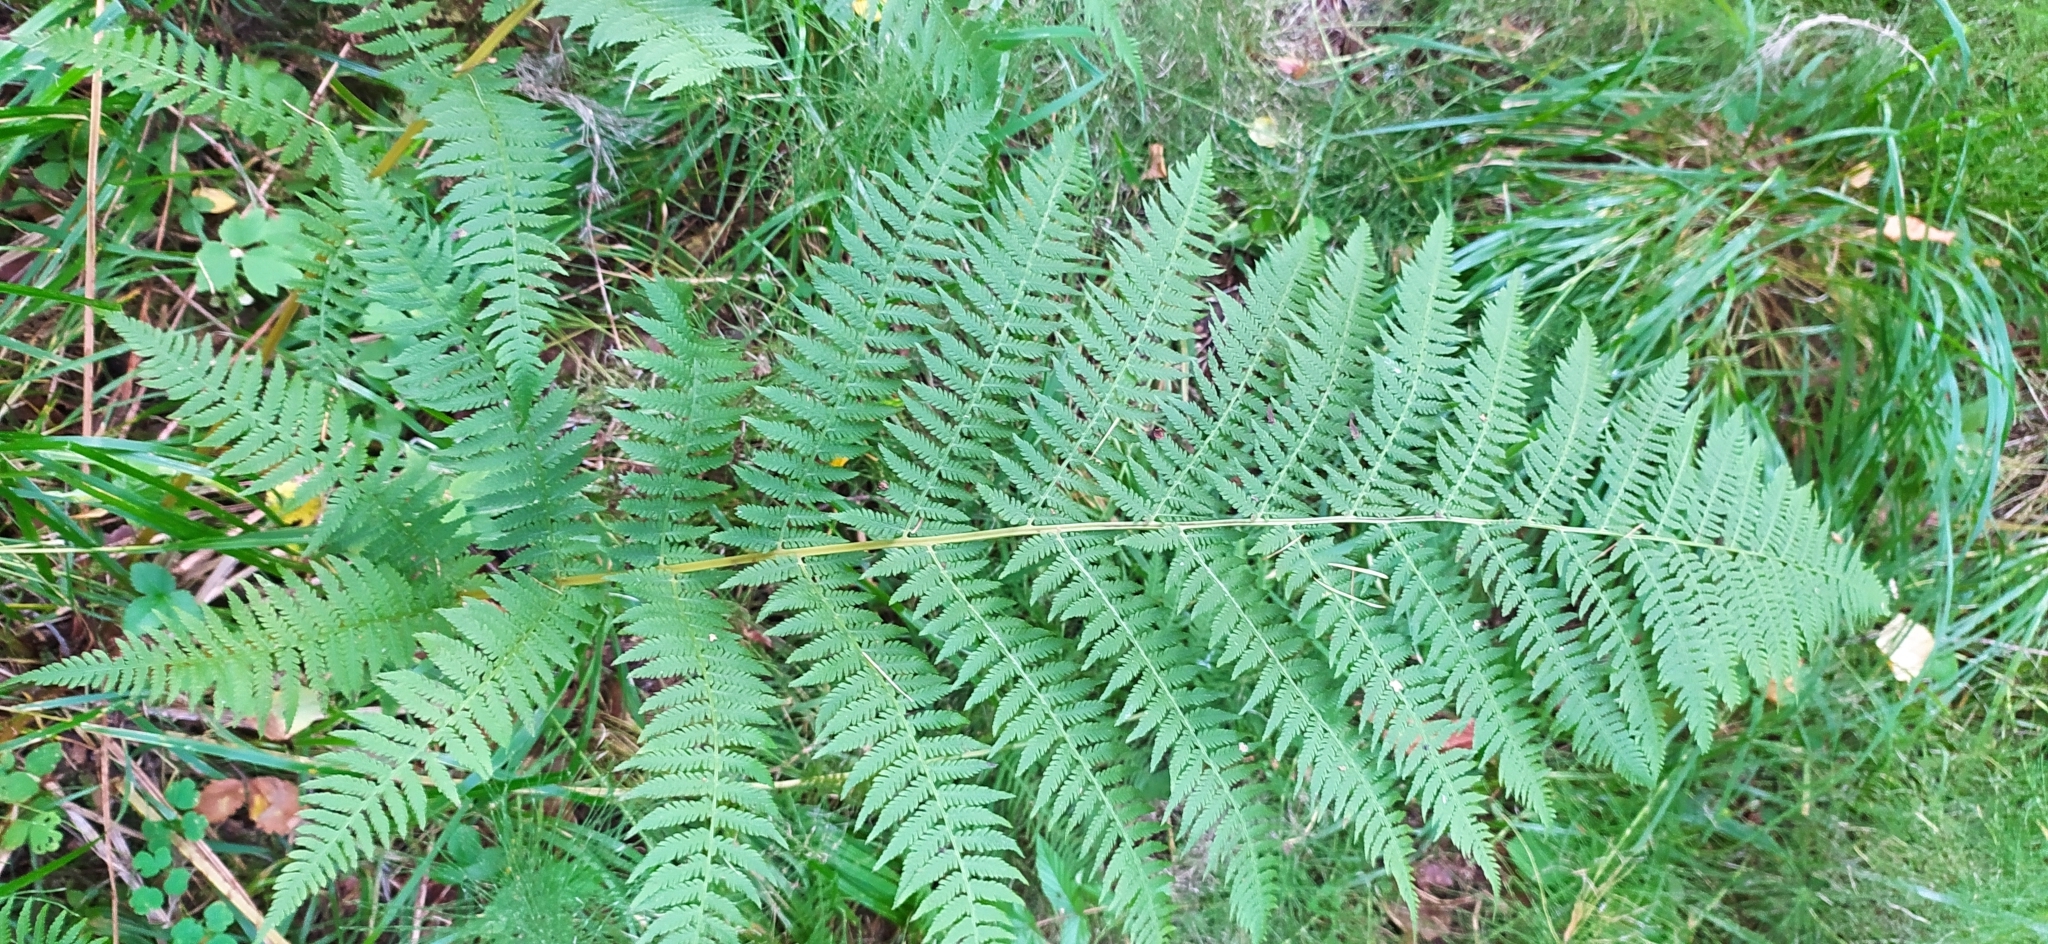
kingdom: Plantae
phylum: Tracheophyta
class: Polypodiopsida
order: Polypodiales
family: Athyriaceae
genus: Athyrium
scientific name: Athyrium filix-femina
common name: Lady fern
